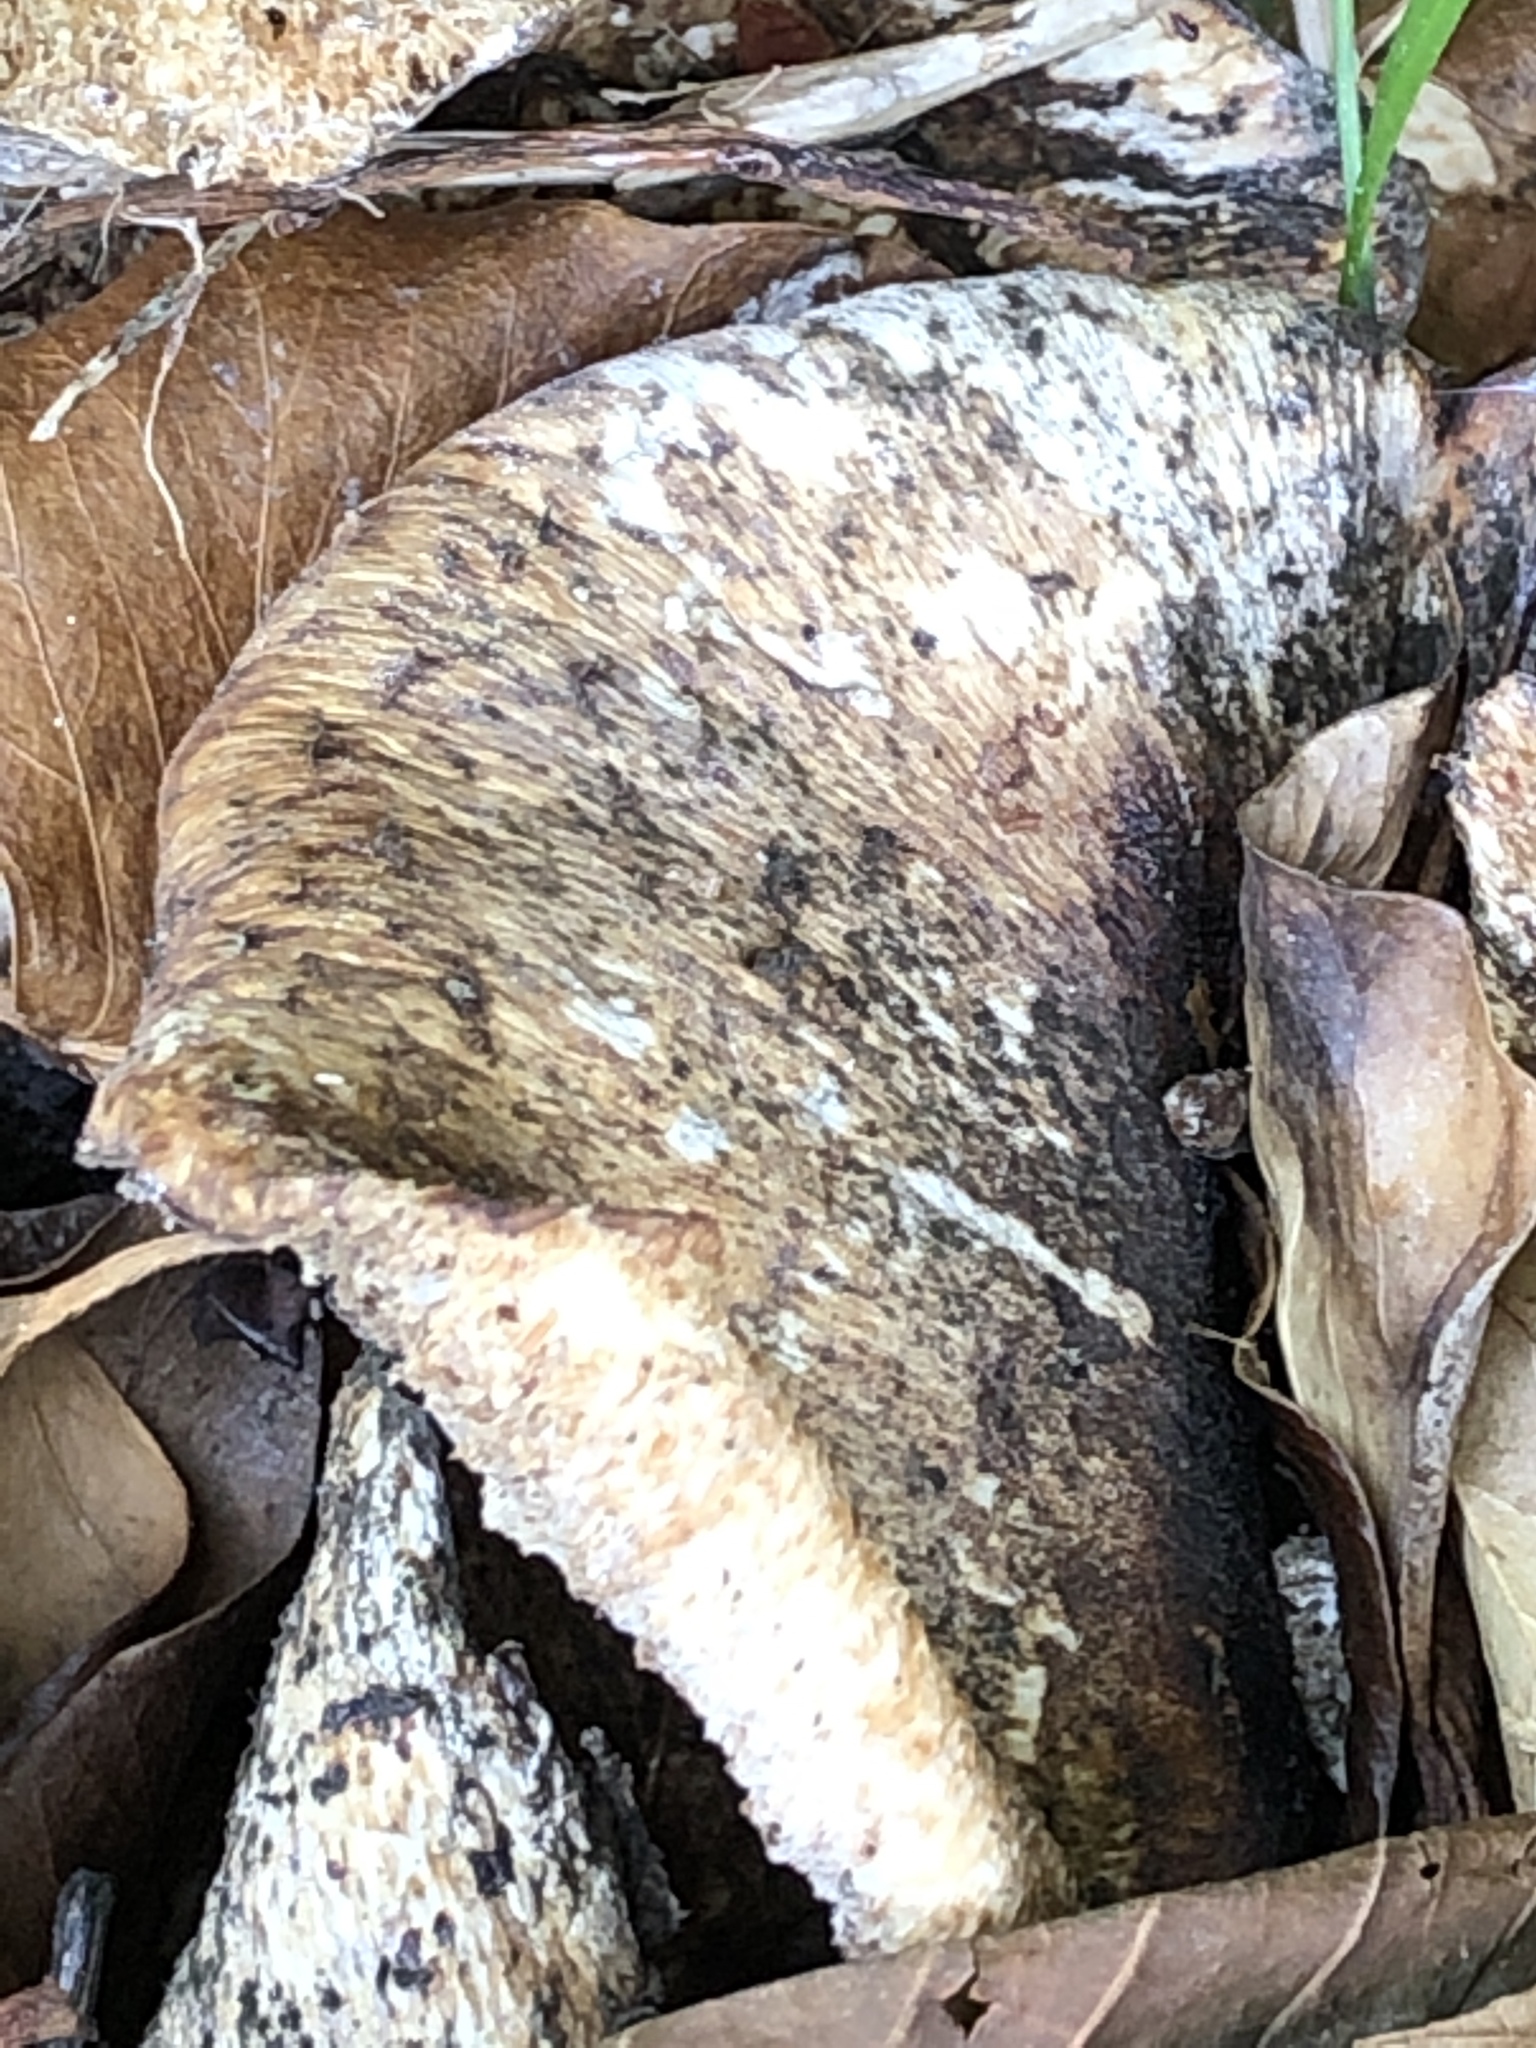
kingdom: Fungi
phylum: Basidiomycota
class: Agaricomycetes
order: Polyporales
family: Polyporaceae
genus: Cerioporus
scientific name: Cerioporus squamosus
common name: Dryad's saddle
